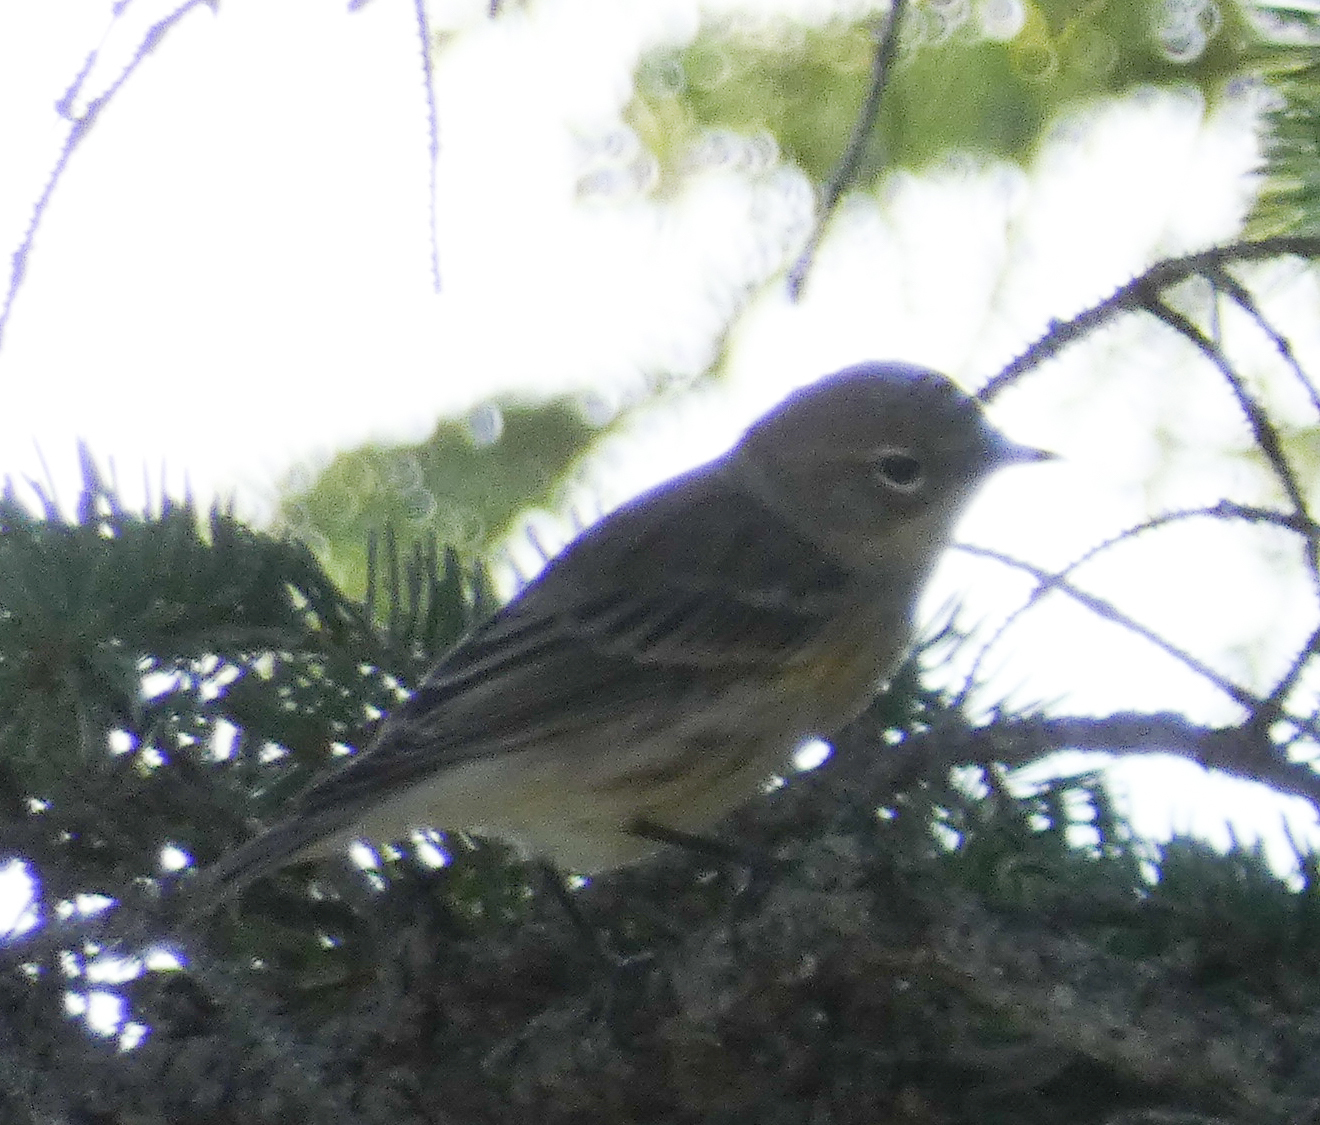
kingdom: Animalia
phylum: Chordata
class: Aves
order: Passeriformes
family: Parulidae
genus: Setophaga
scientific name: Setophaga coronata
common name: Myrtle warbler
